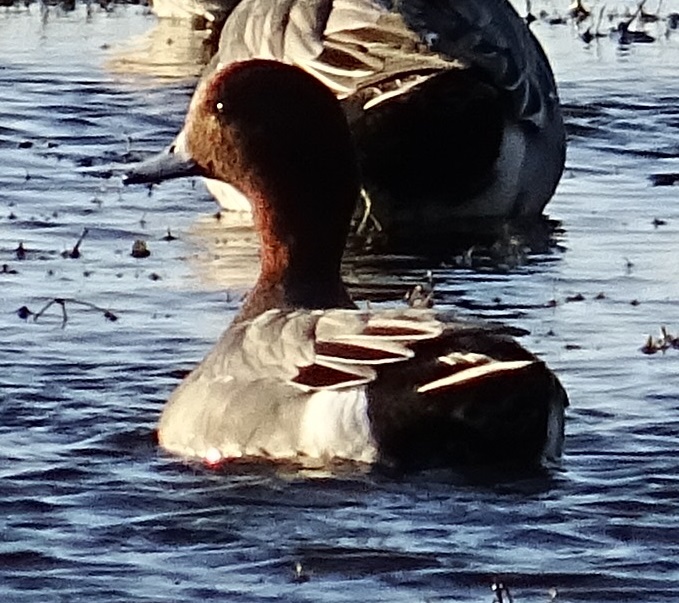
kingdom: Animalia
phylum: Chordata
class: Aves
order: Anseriformes
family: Anatidae
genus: Mareca
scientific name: Mareca penelope
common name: Eurasian wigeon
